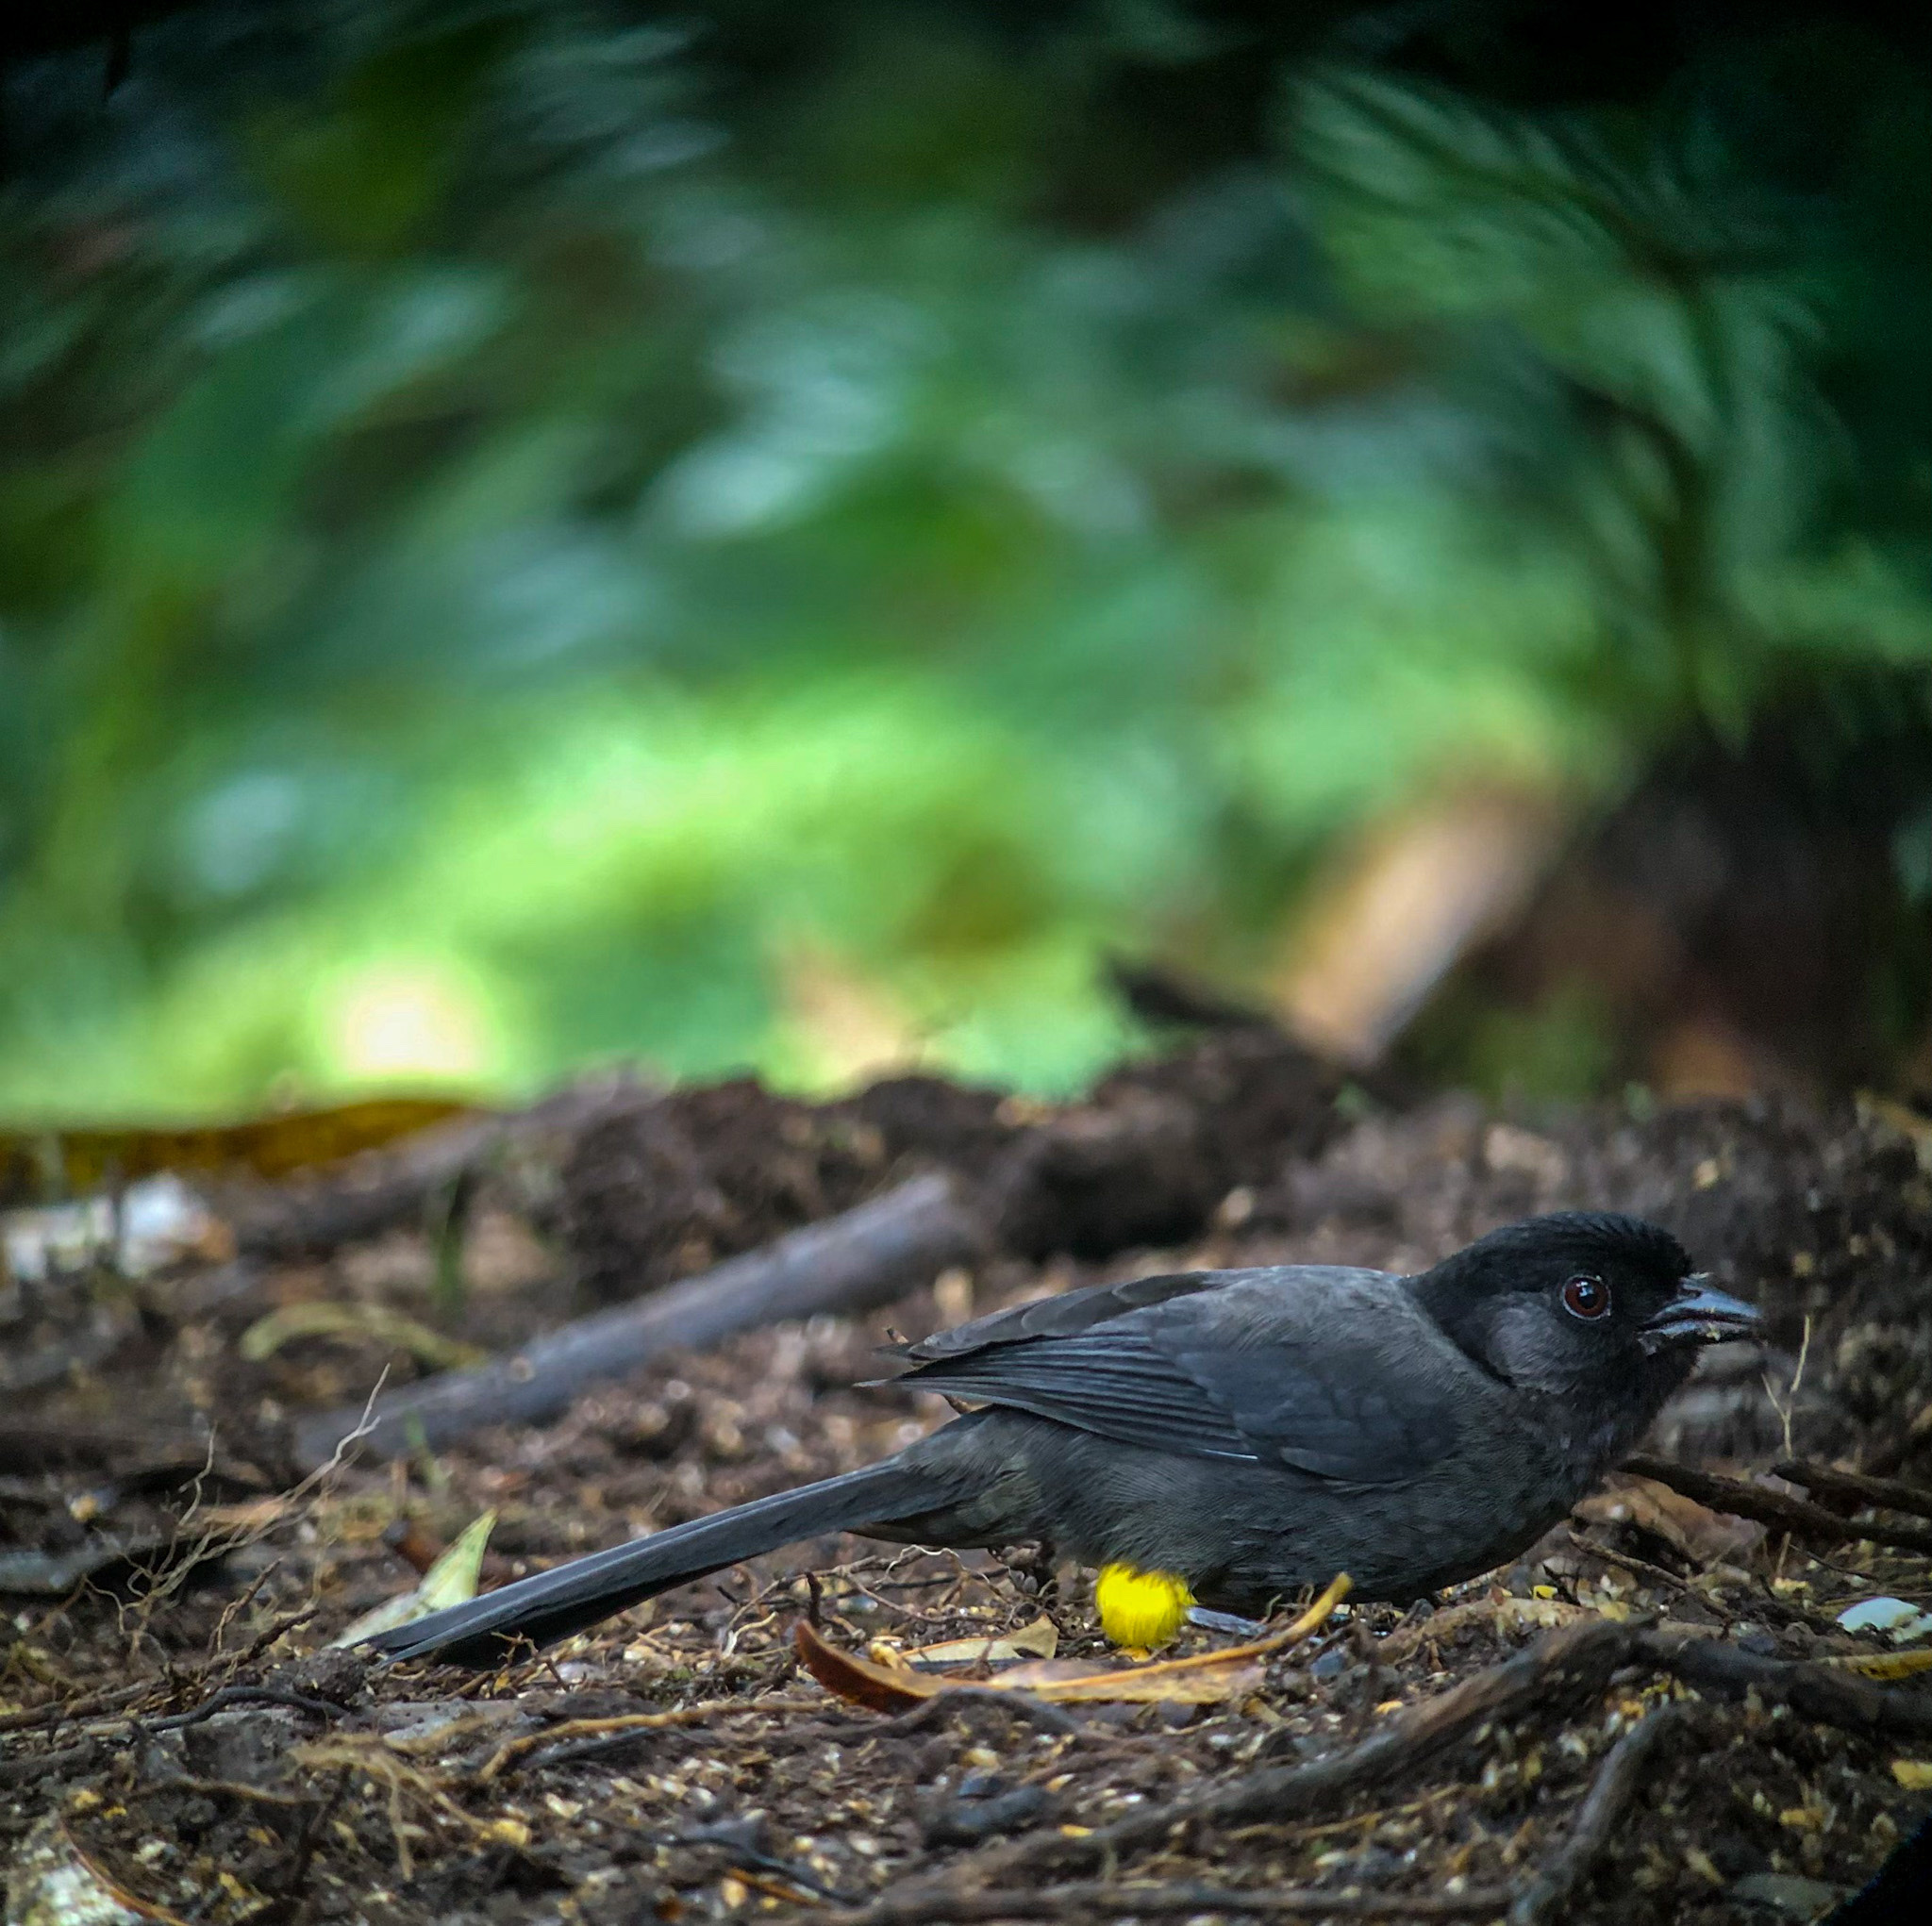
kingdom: Animalia
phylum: Chordata
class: Aves
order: Passeriformes
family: Passerellidae
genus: Atlapetes
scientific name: Atlapetes tibialis
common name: Yellow-thighed brushfinch
